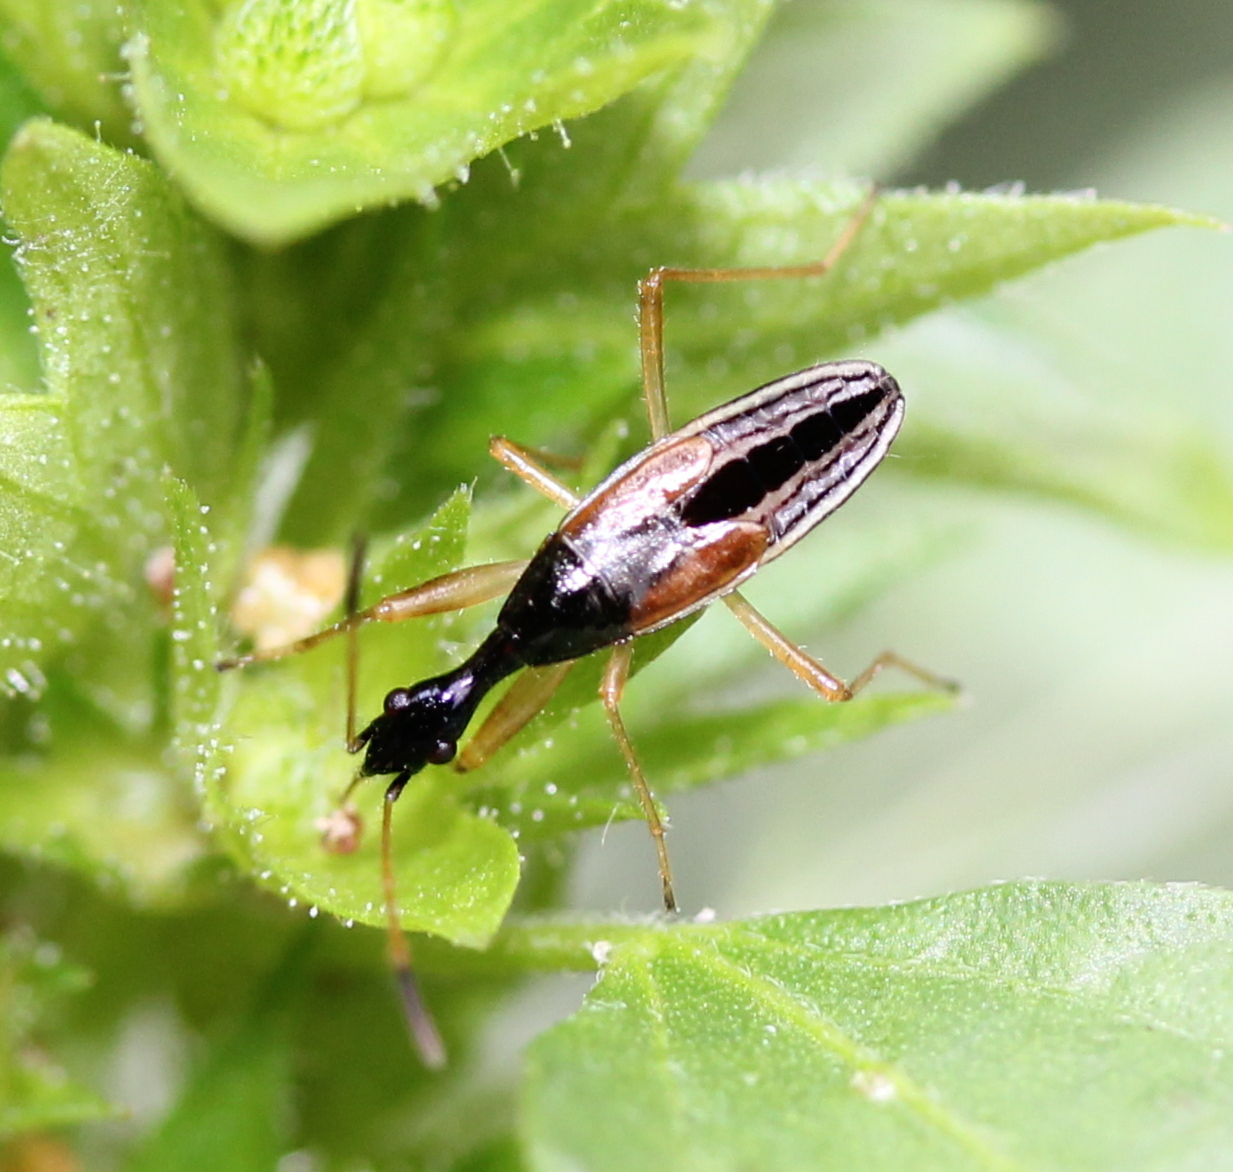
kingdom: Animalia
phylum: Arthropoda
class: Insecta
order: Hemiptera
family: Rhyparochromidae
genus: Myodocha
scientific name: Myodocha serripes
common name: Long-necked seed bug
